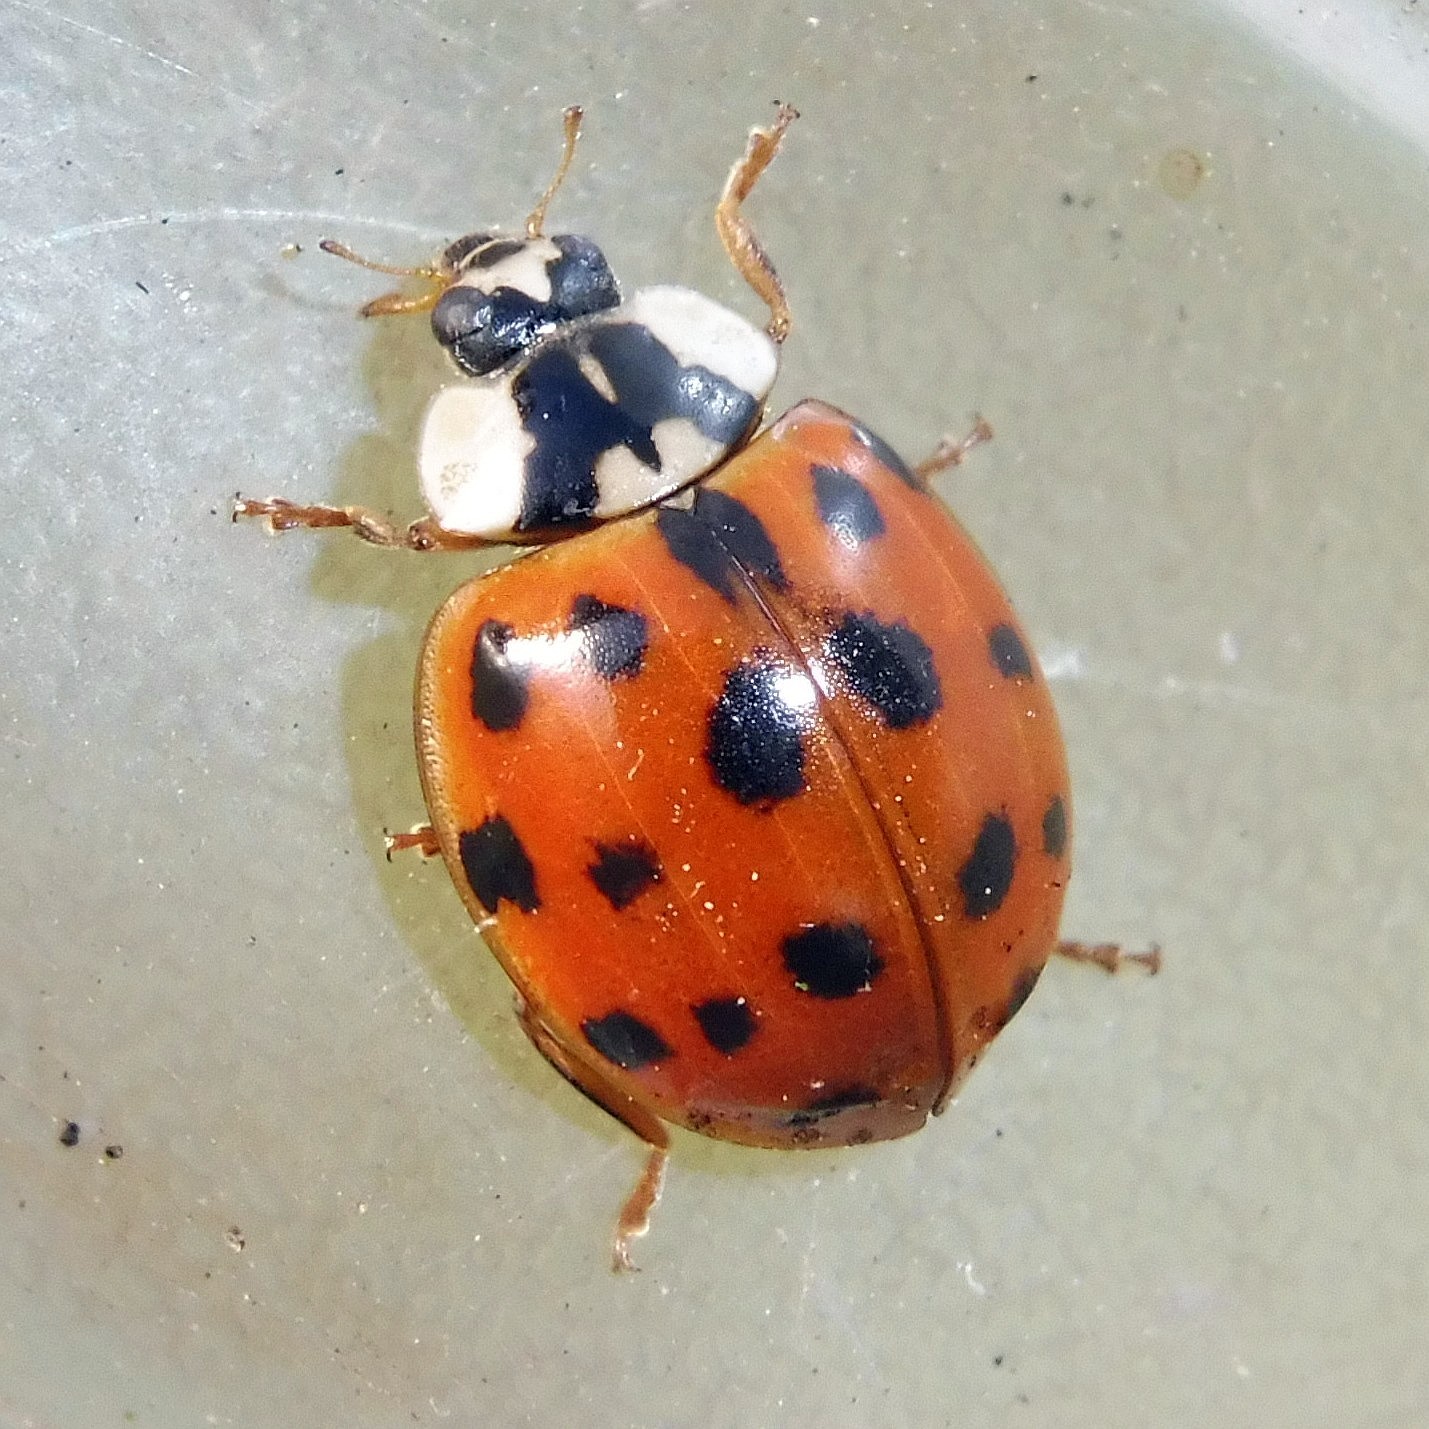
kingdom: Animalia
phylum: Arthropoda
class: Insecta
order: Coleoptera
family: Coccinellidae
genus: Harmonia
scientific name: Harmonia axyridis
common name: Harlequin ladybird
